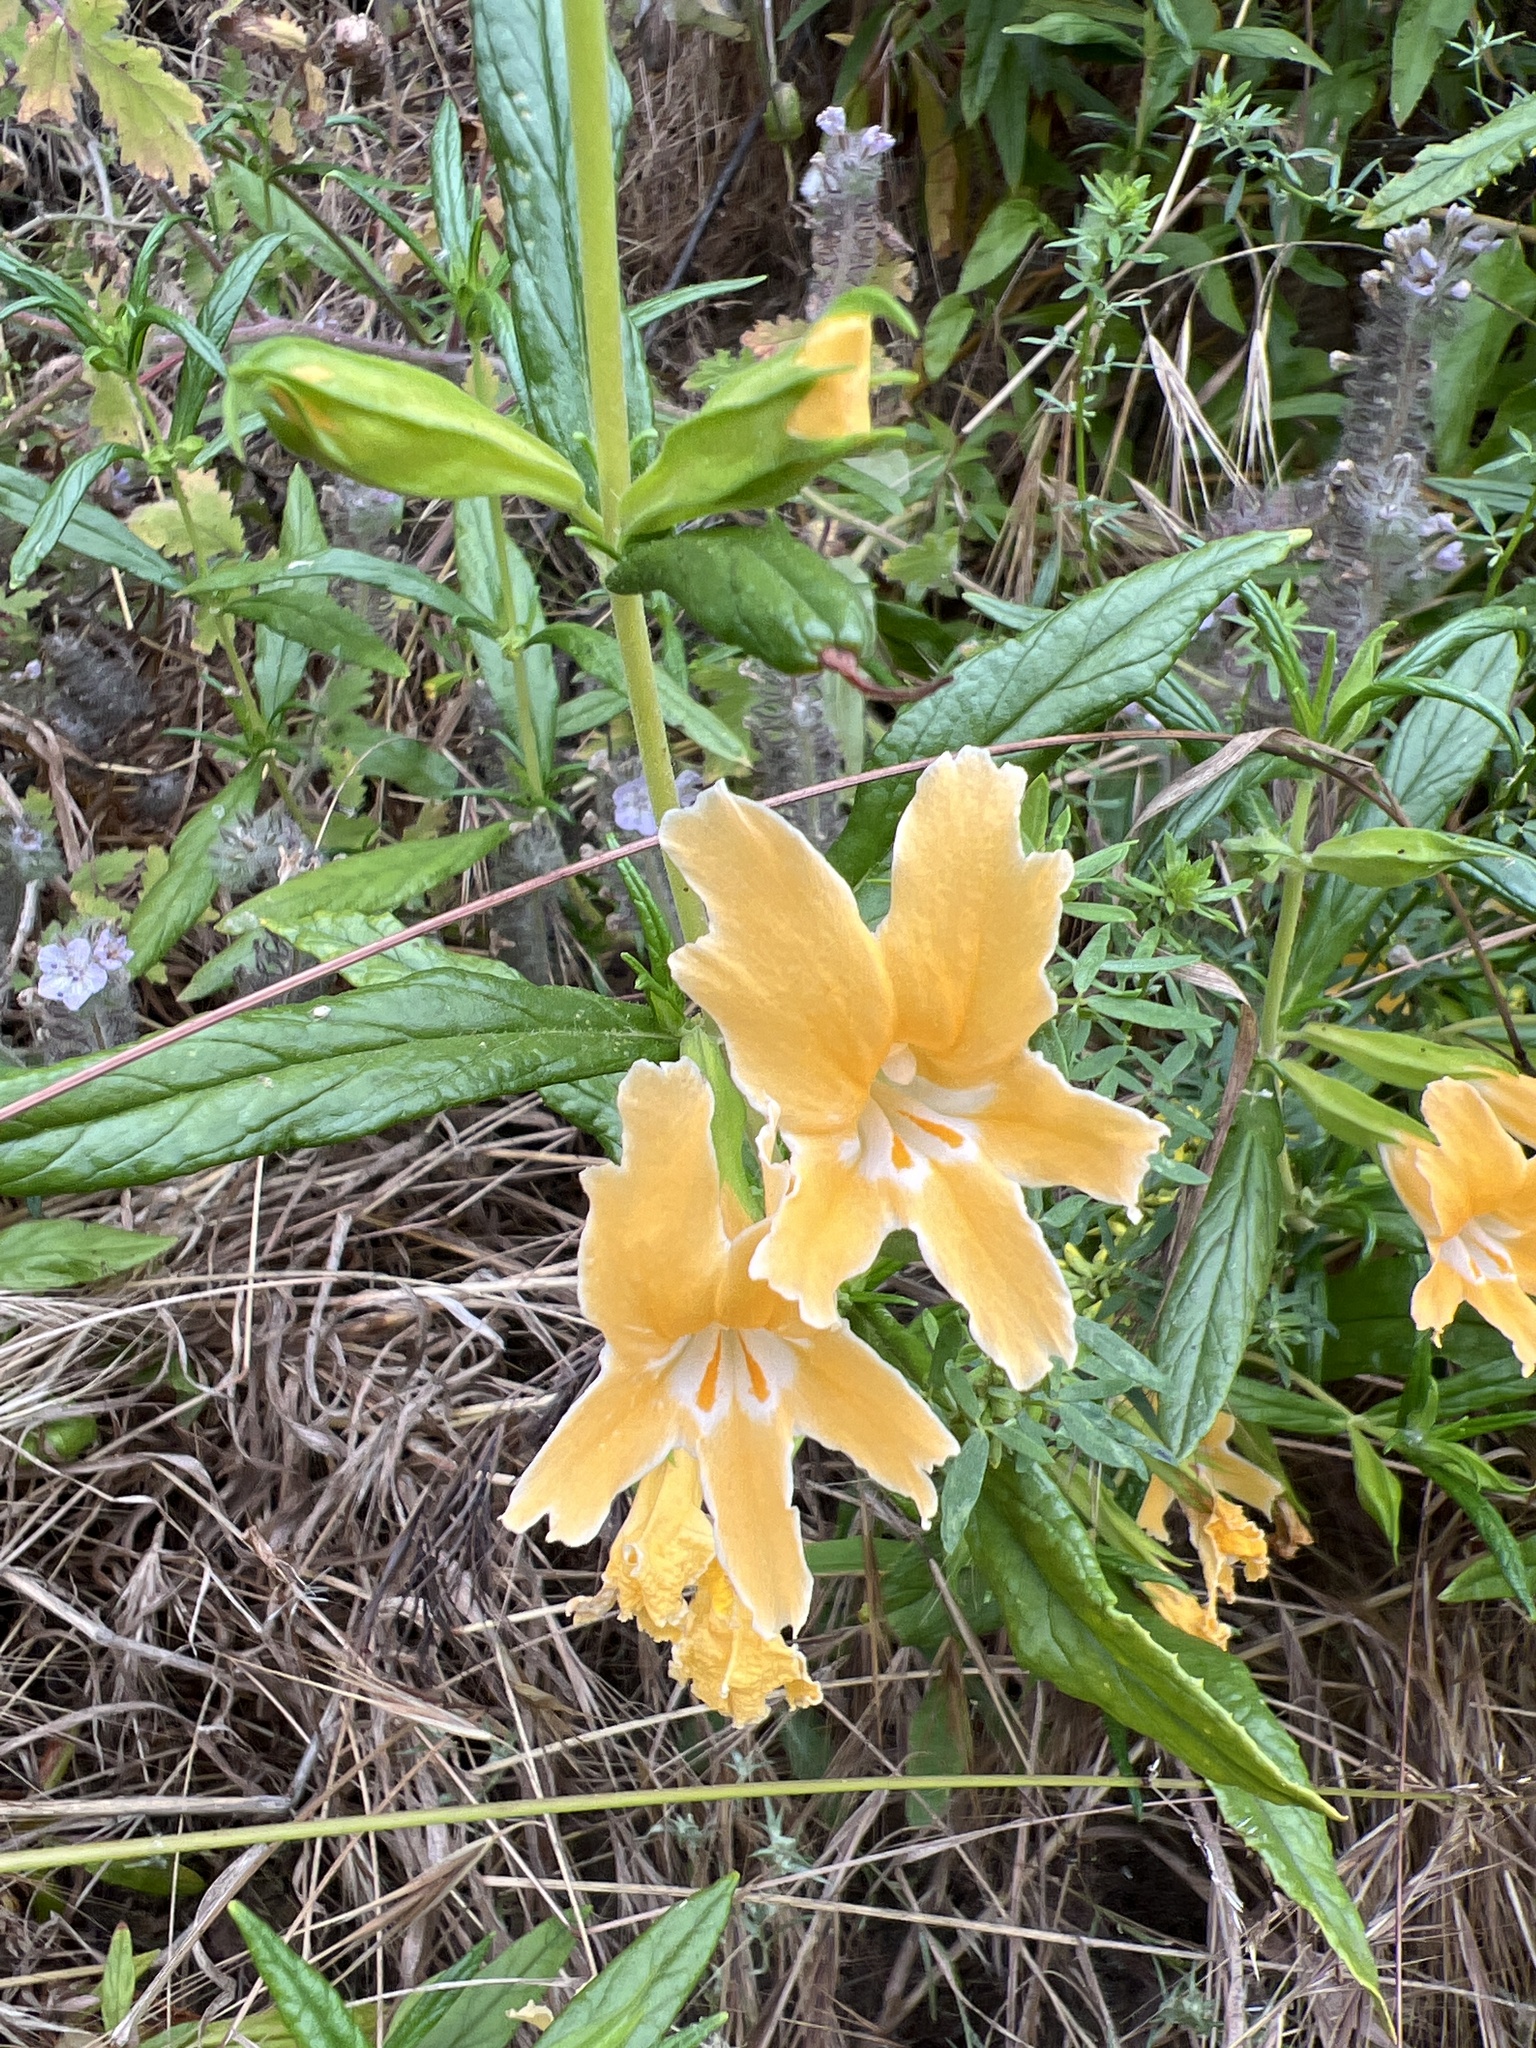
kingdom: Plantae
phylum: Tracheophyta
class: Magnoliopsida
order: Lamiales
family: Phrymaceae
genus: Diplacus
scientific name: Diplacus longiflorus
